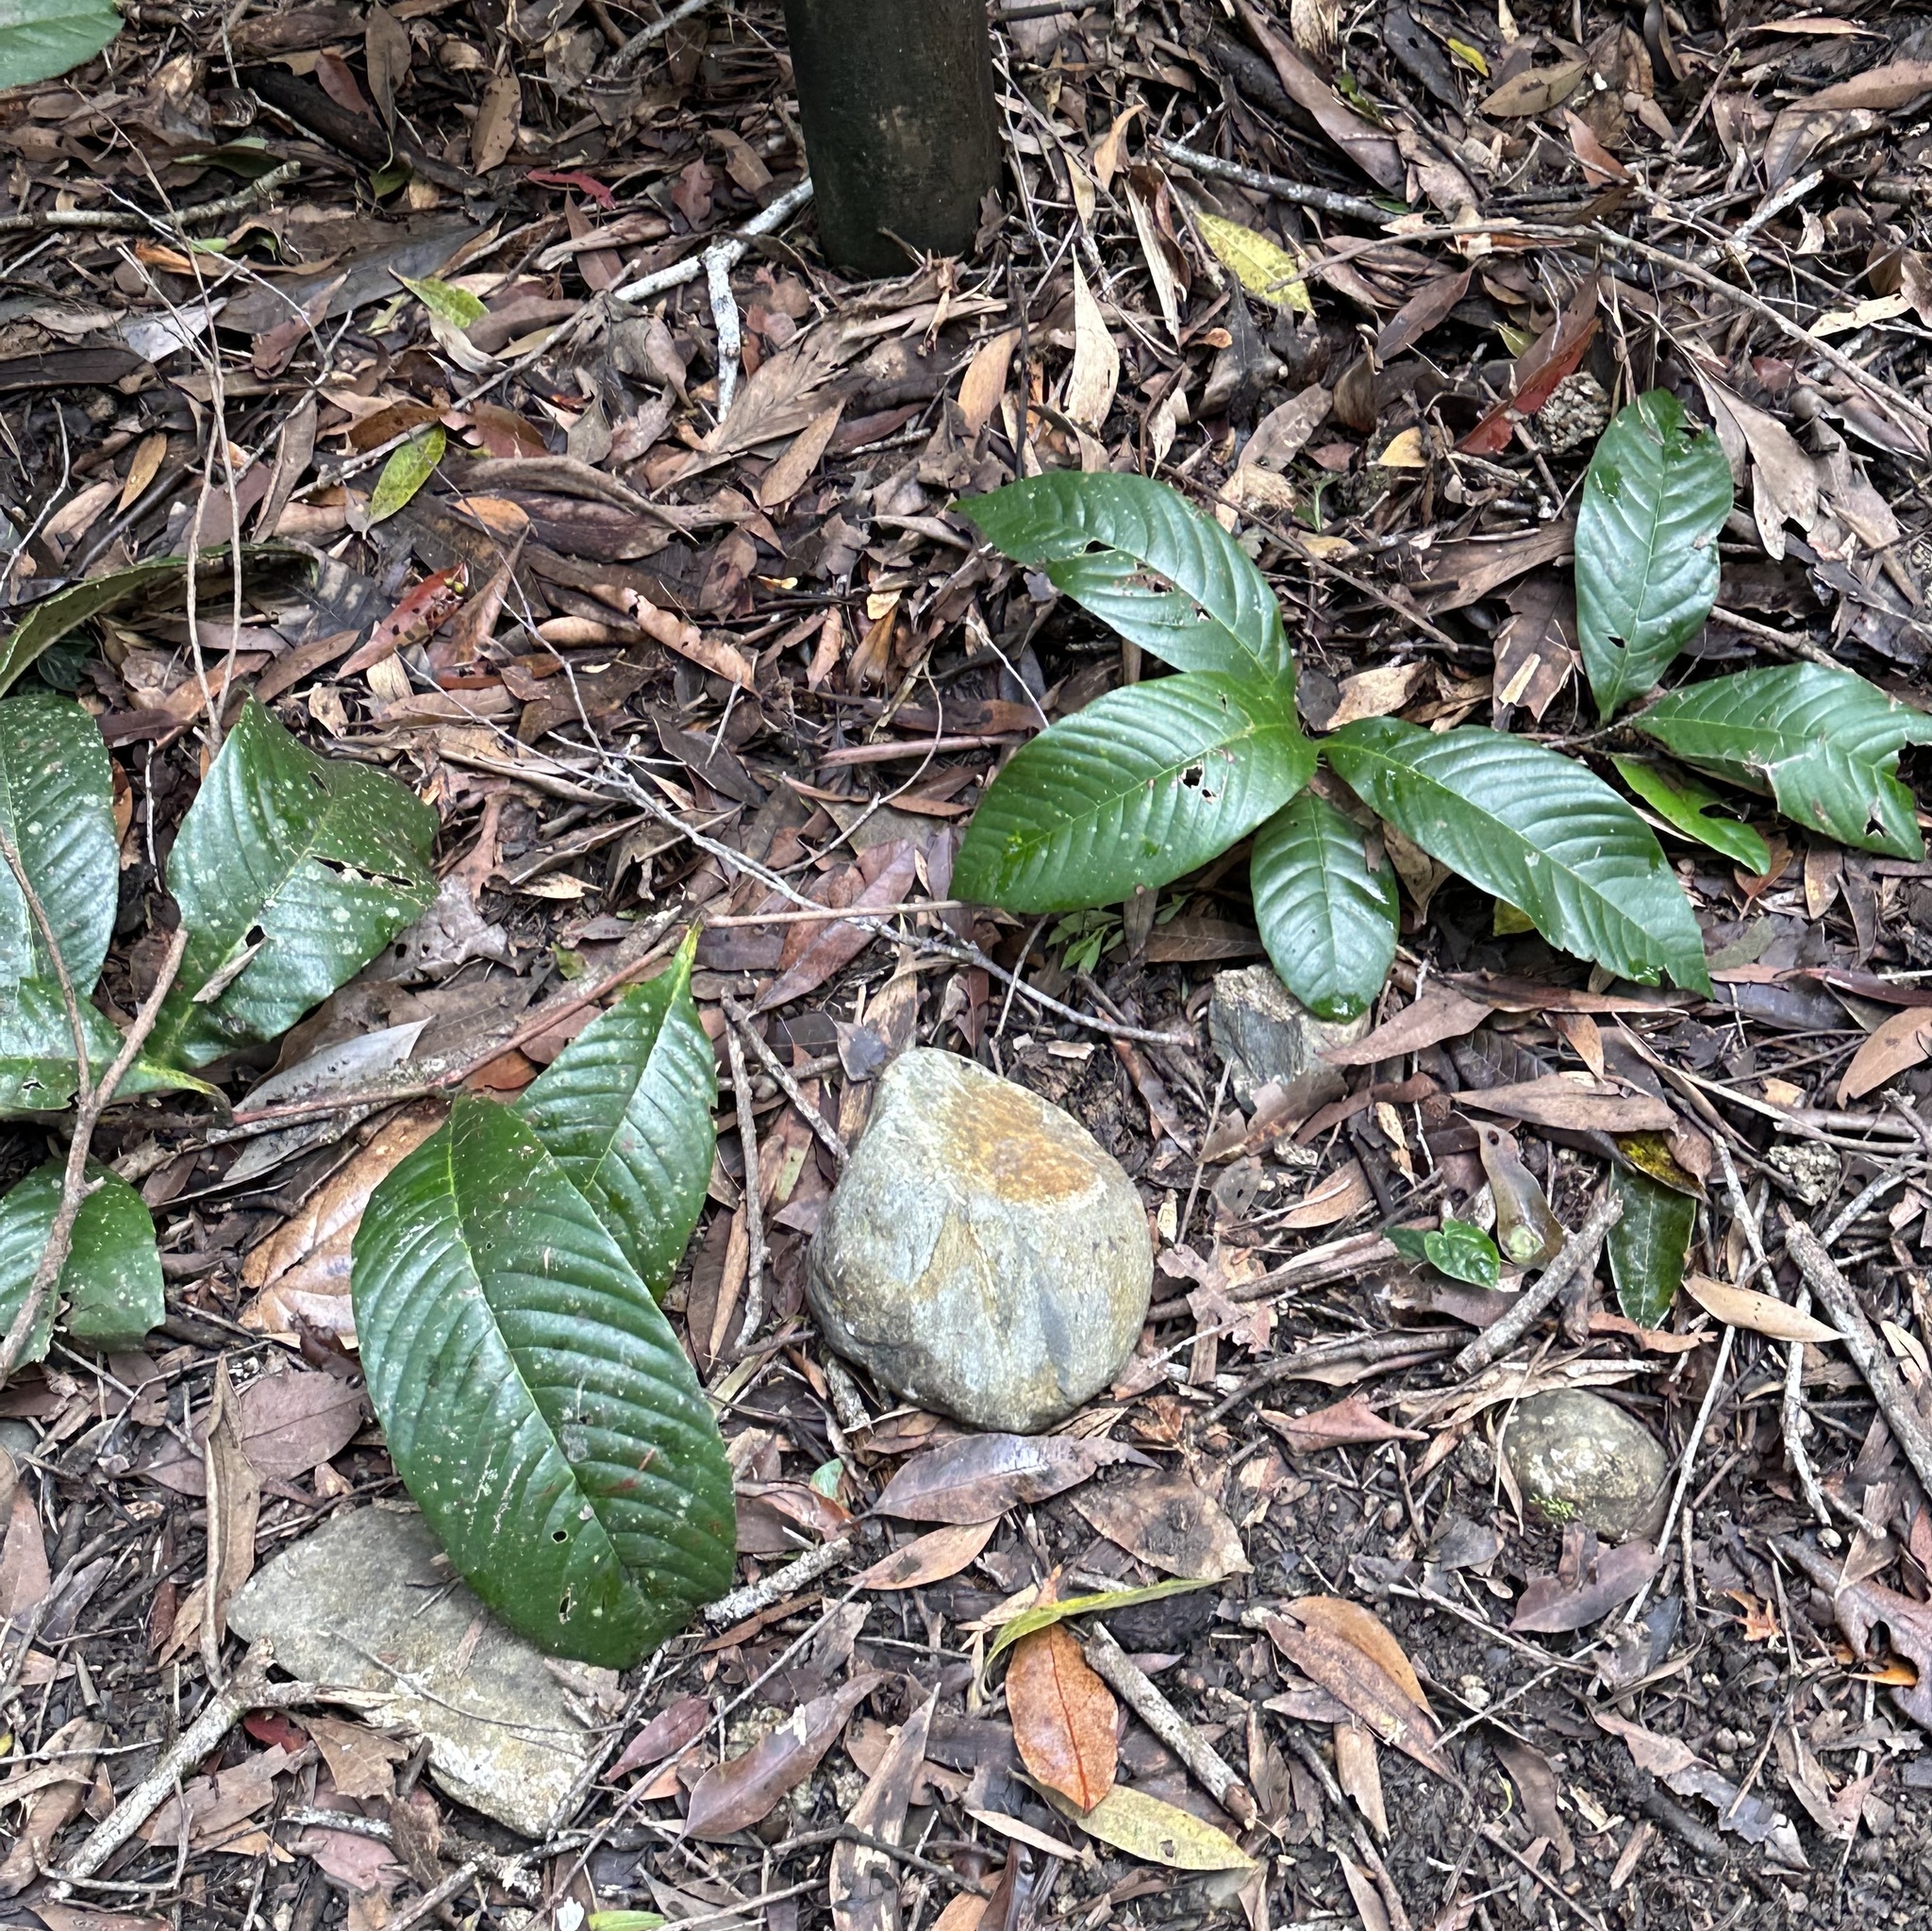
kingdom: Plantae
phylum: Tracheophyta
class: Magnoliopsida
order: Dilleniales
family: Dilleniaceae
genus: Tetracera
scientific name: Tetracera nordtiana
